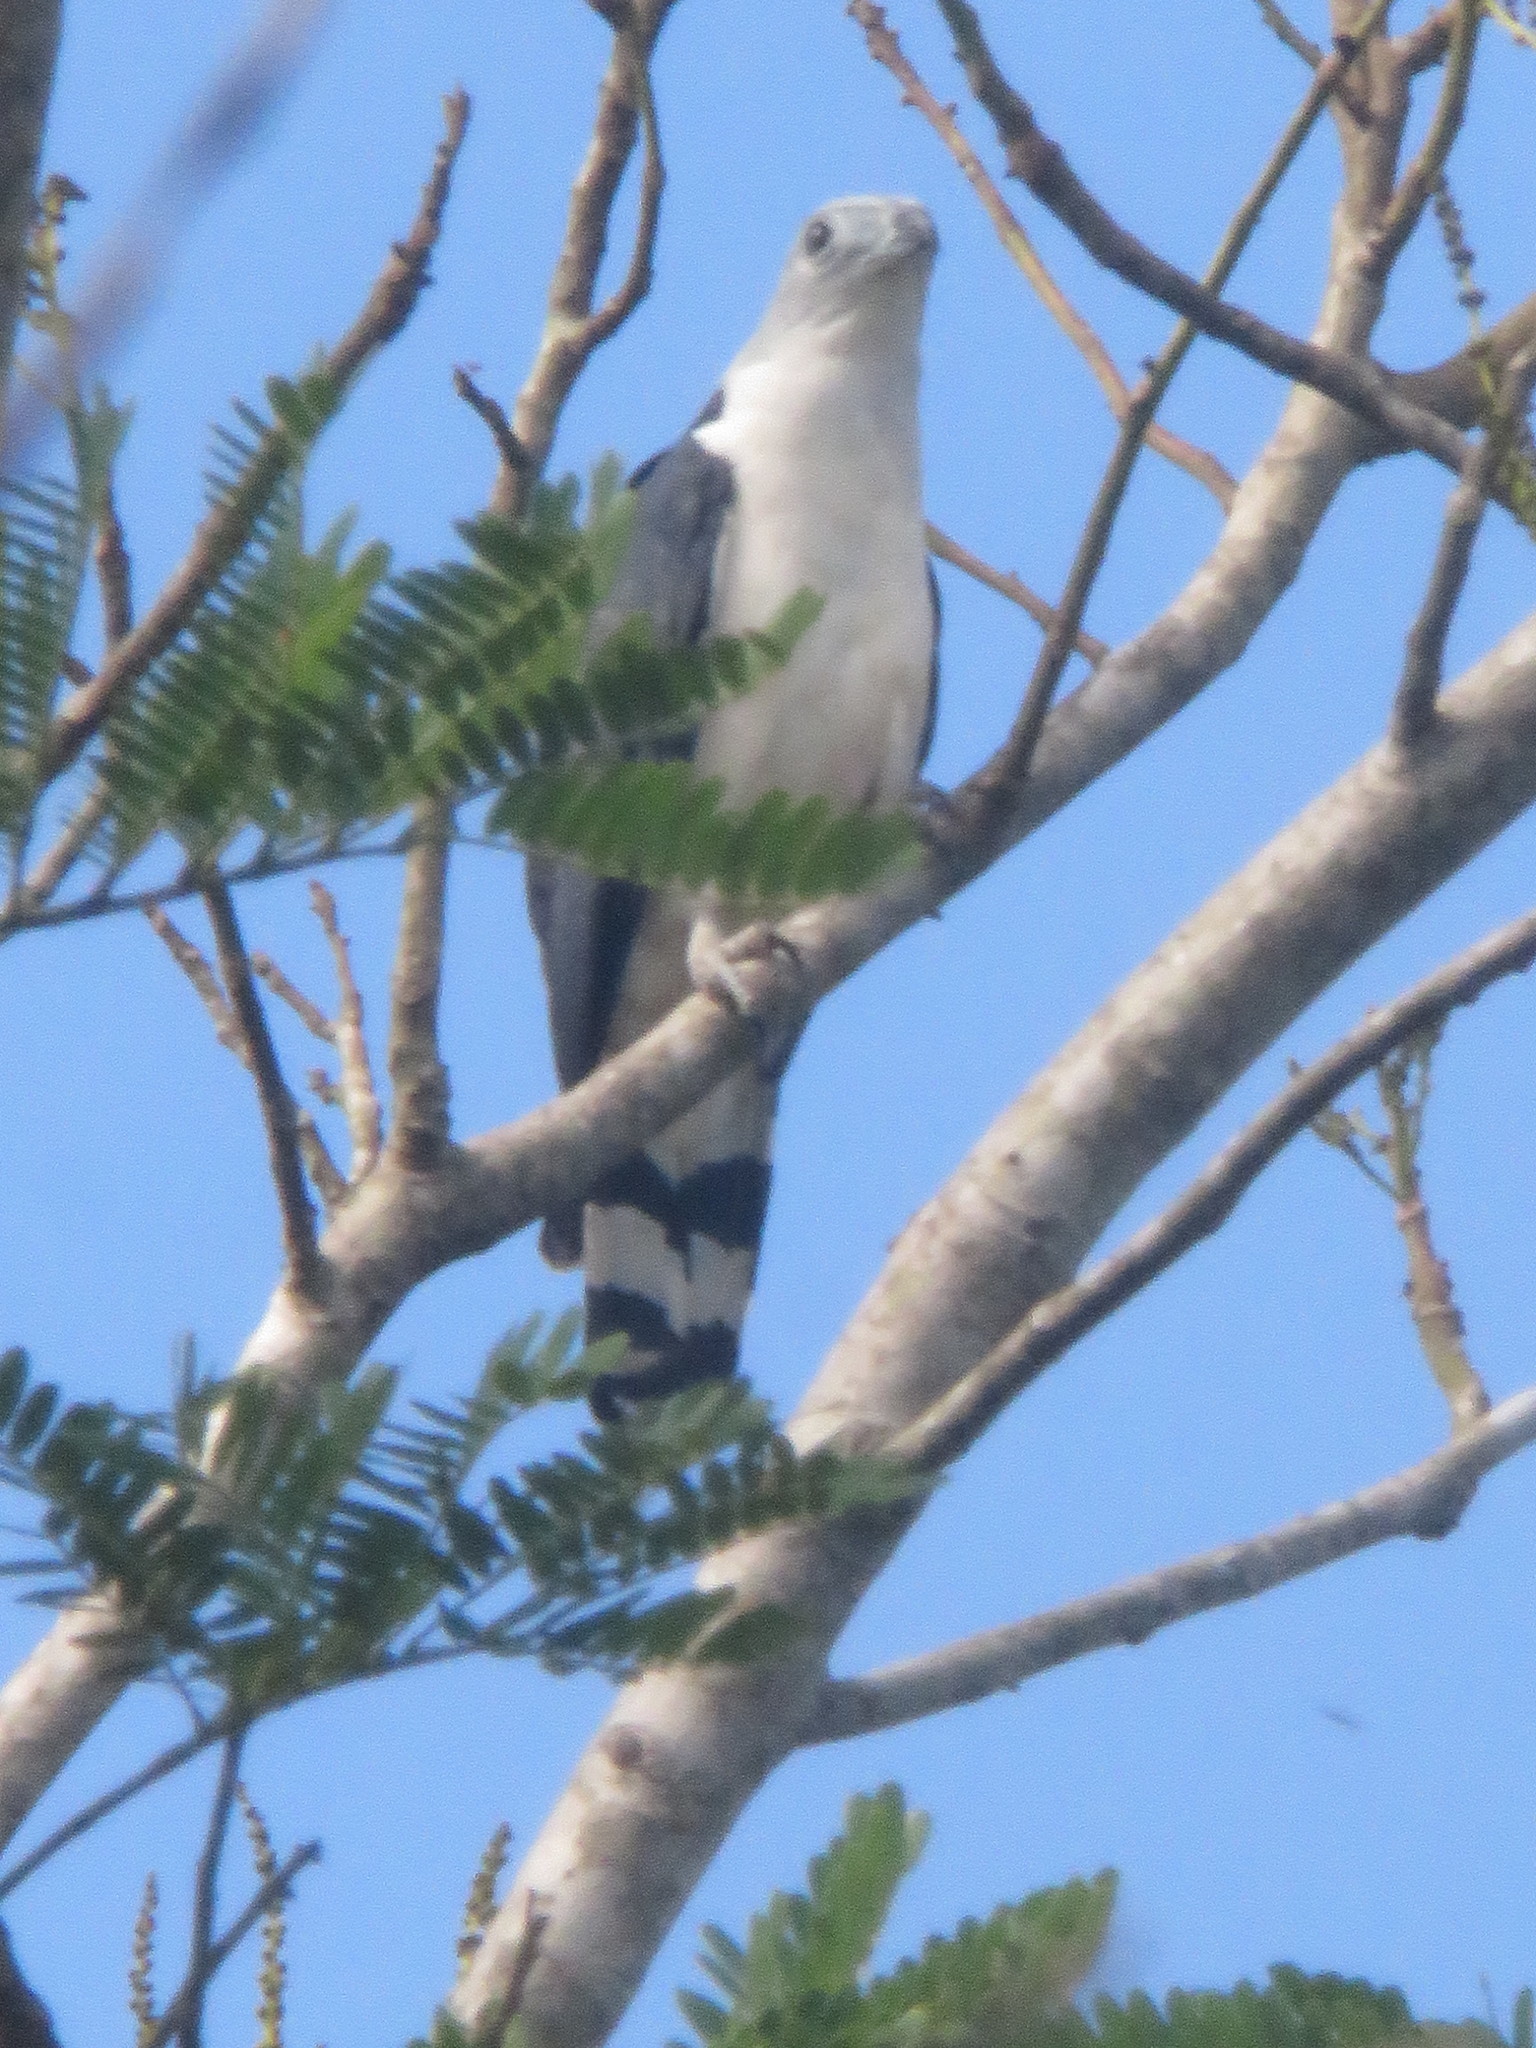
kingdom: Animalia
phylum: Chordata
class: Aves
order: Accipitriformes
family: Accipitridae
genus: Leptodon
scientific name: Leptodon cayanensis
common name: Gray-headed kite
